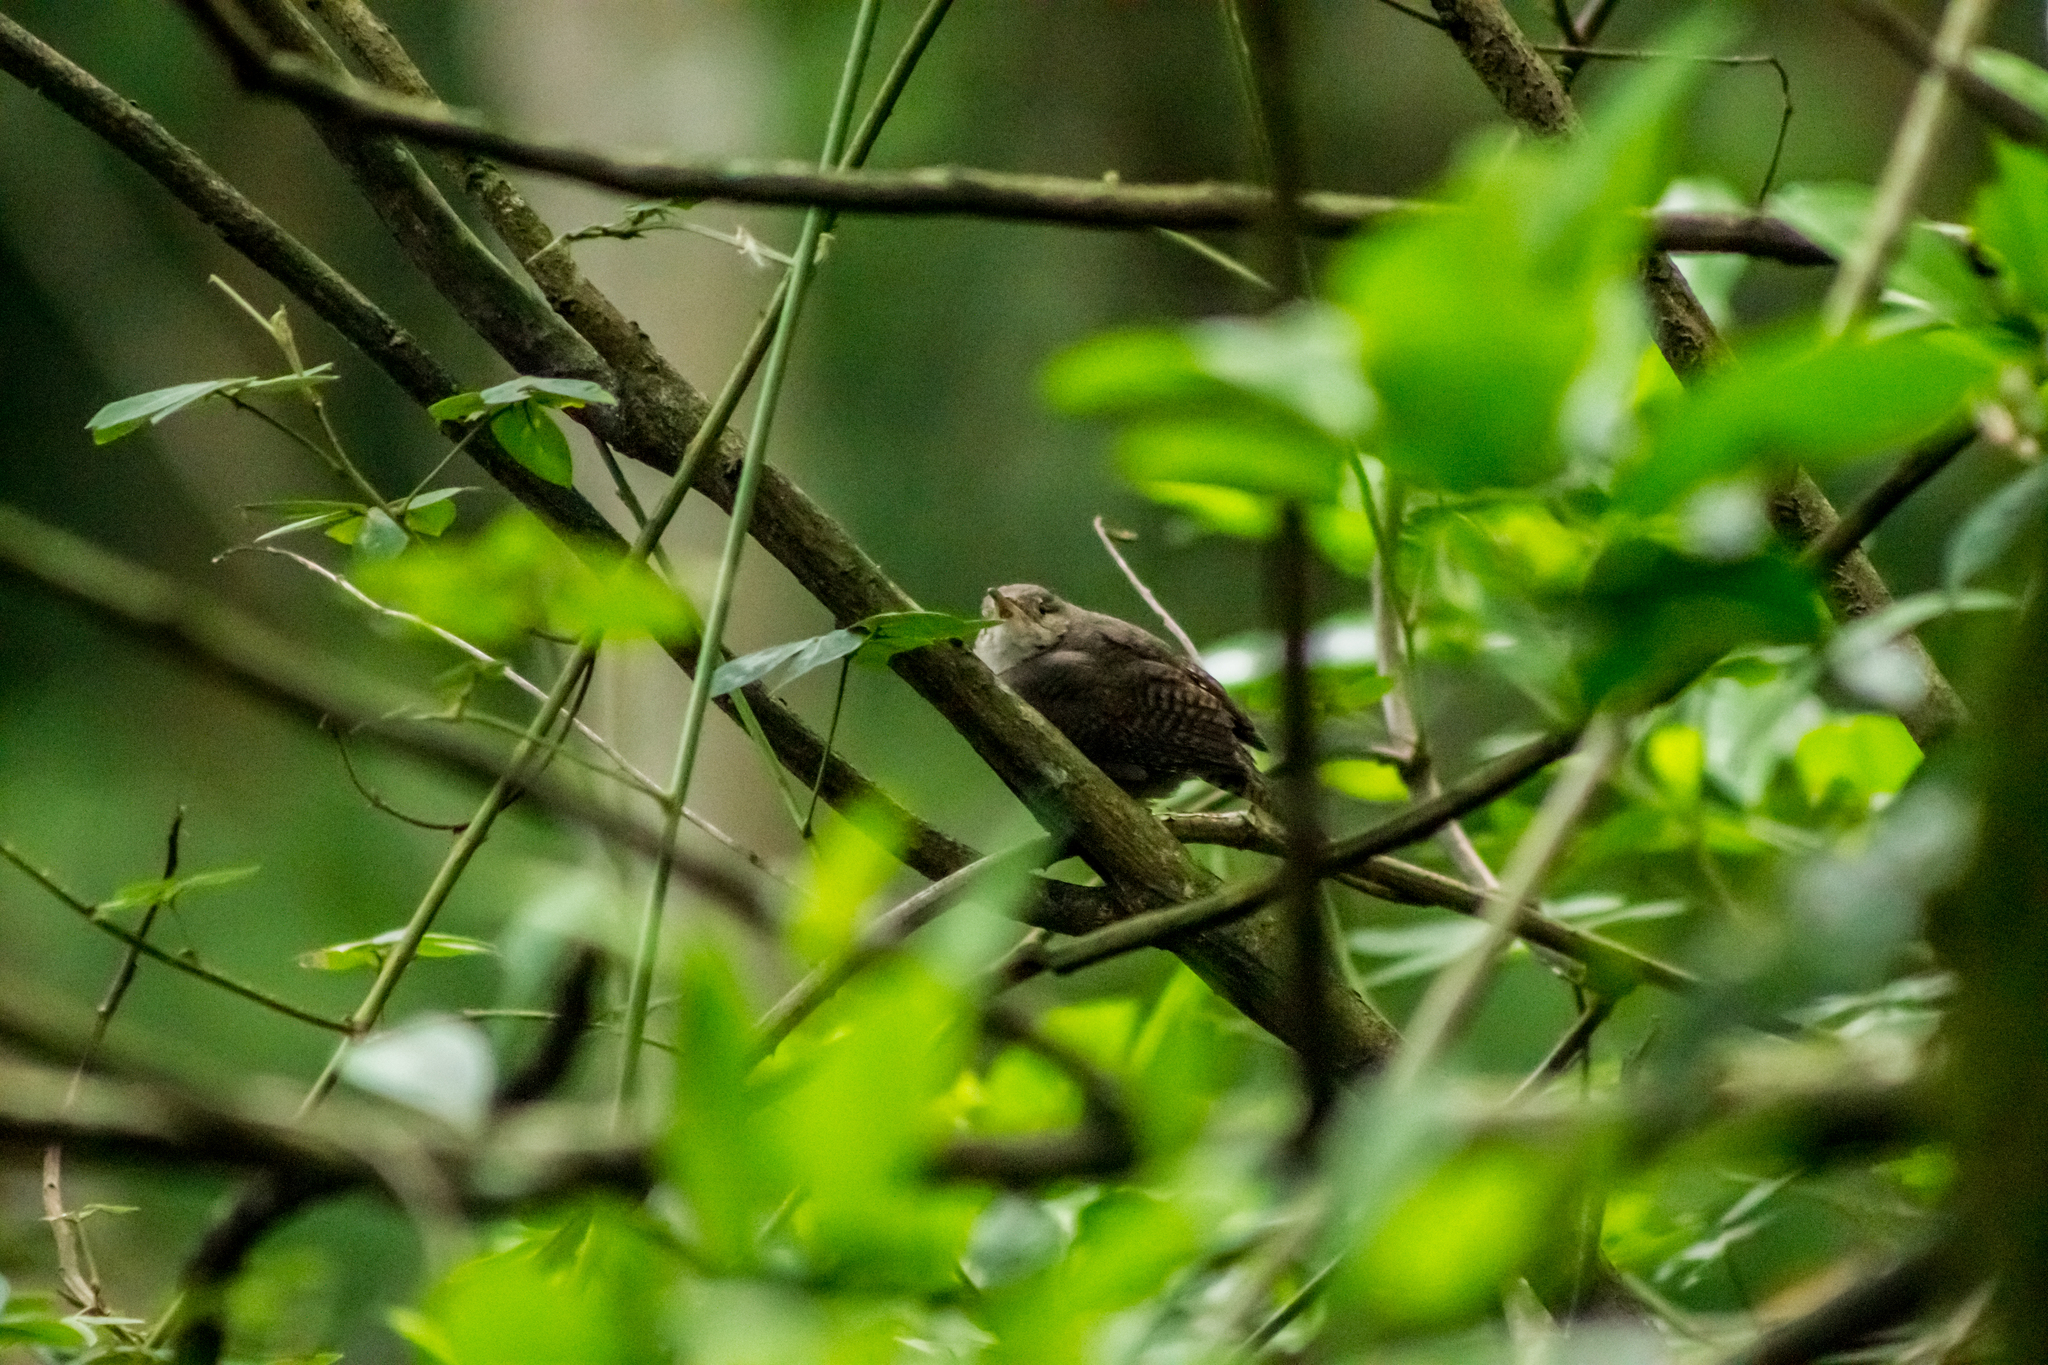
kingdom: Animalia
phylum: Chordata
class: Aves
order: Passeriformes
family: Troglodytidae
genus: Troglodytes
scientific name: Troglodytes aedon
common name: House wren
